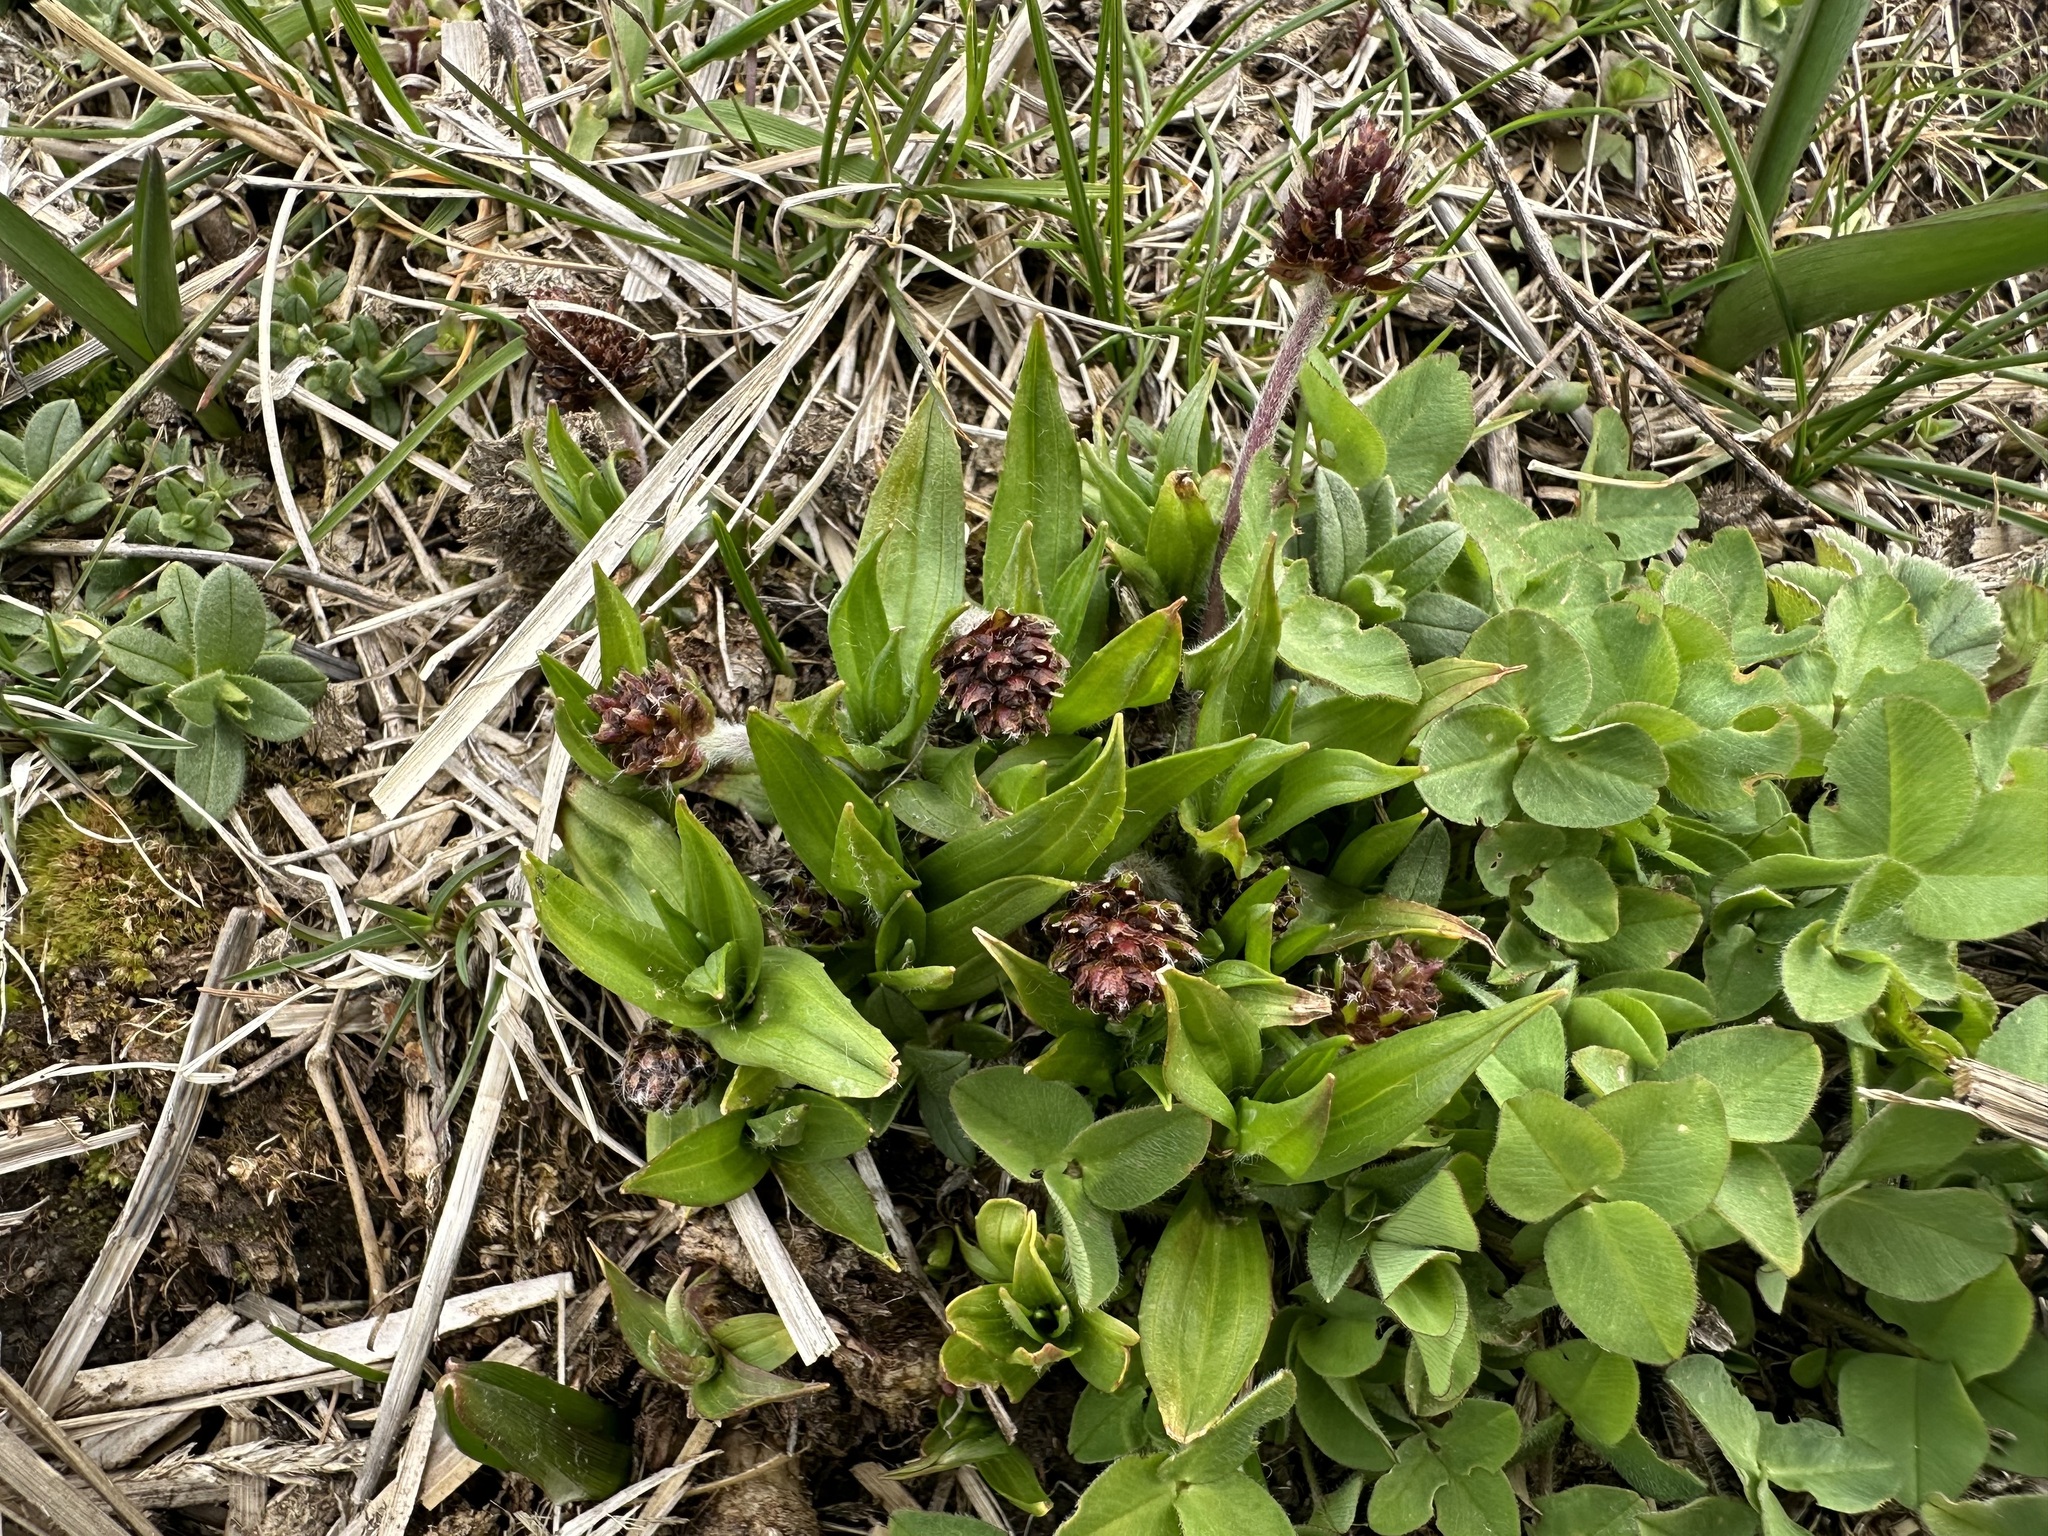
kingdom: Plantae
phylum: Tracheophyta
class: Magnoliopsida
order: Lamiales
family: Plantaginaceae
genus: Plantago
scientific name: Plantago atrata
